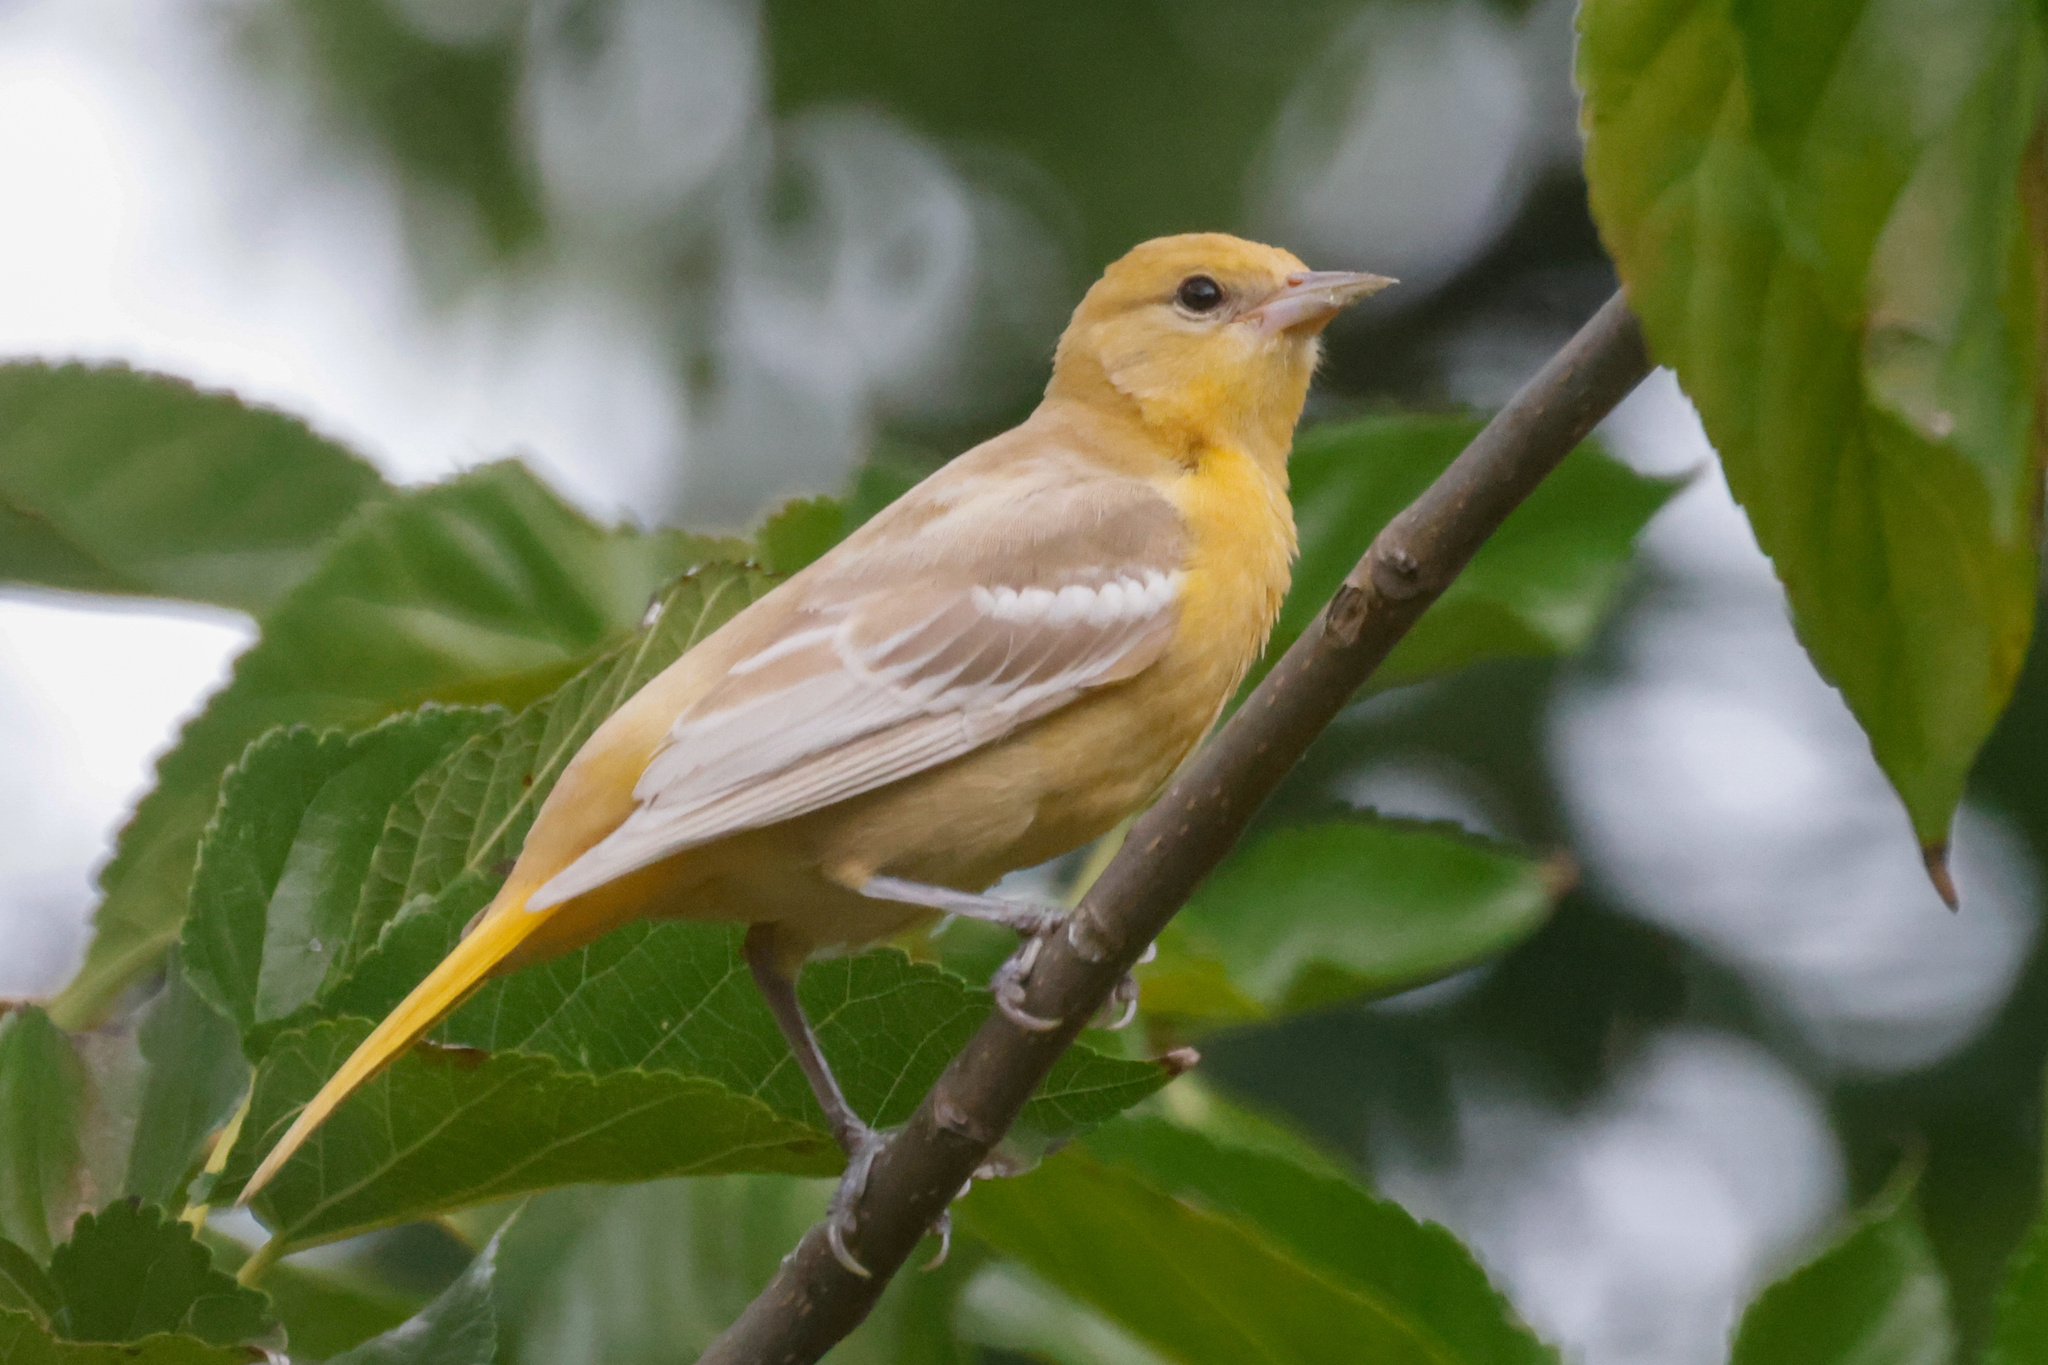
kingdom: Animalia
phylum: Chordata
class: Aves
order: Passeriformes
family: Icteridae
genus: Icterus
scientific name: Icterus galbula
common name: Baltimore oriole
